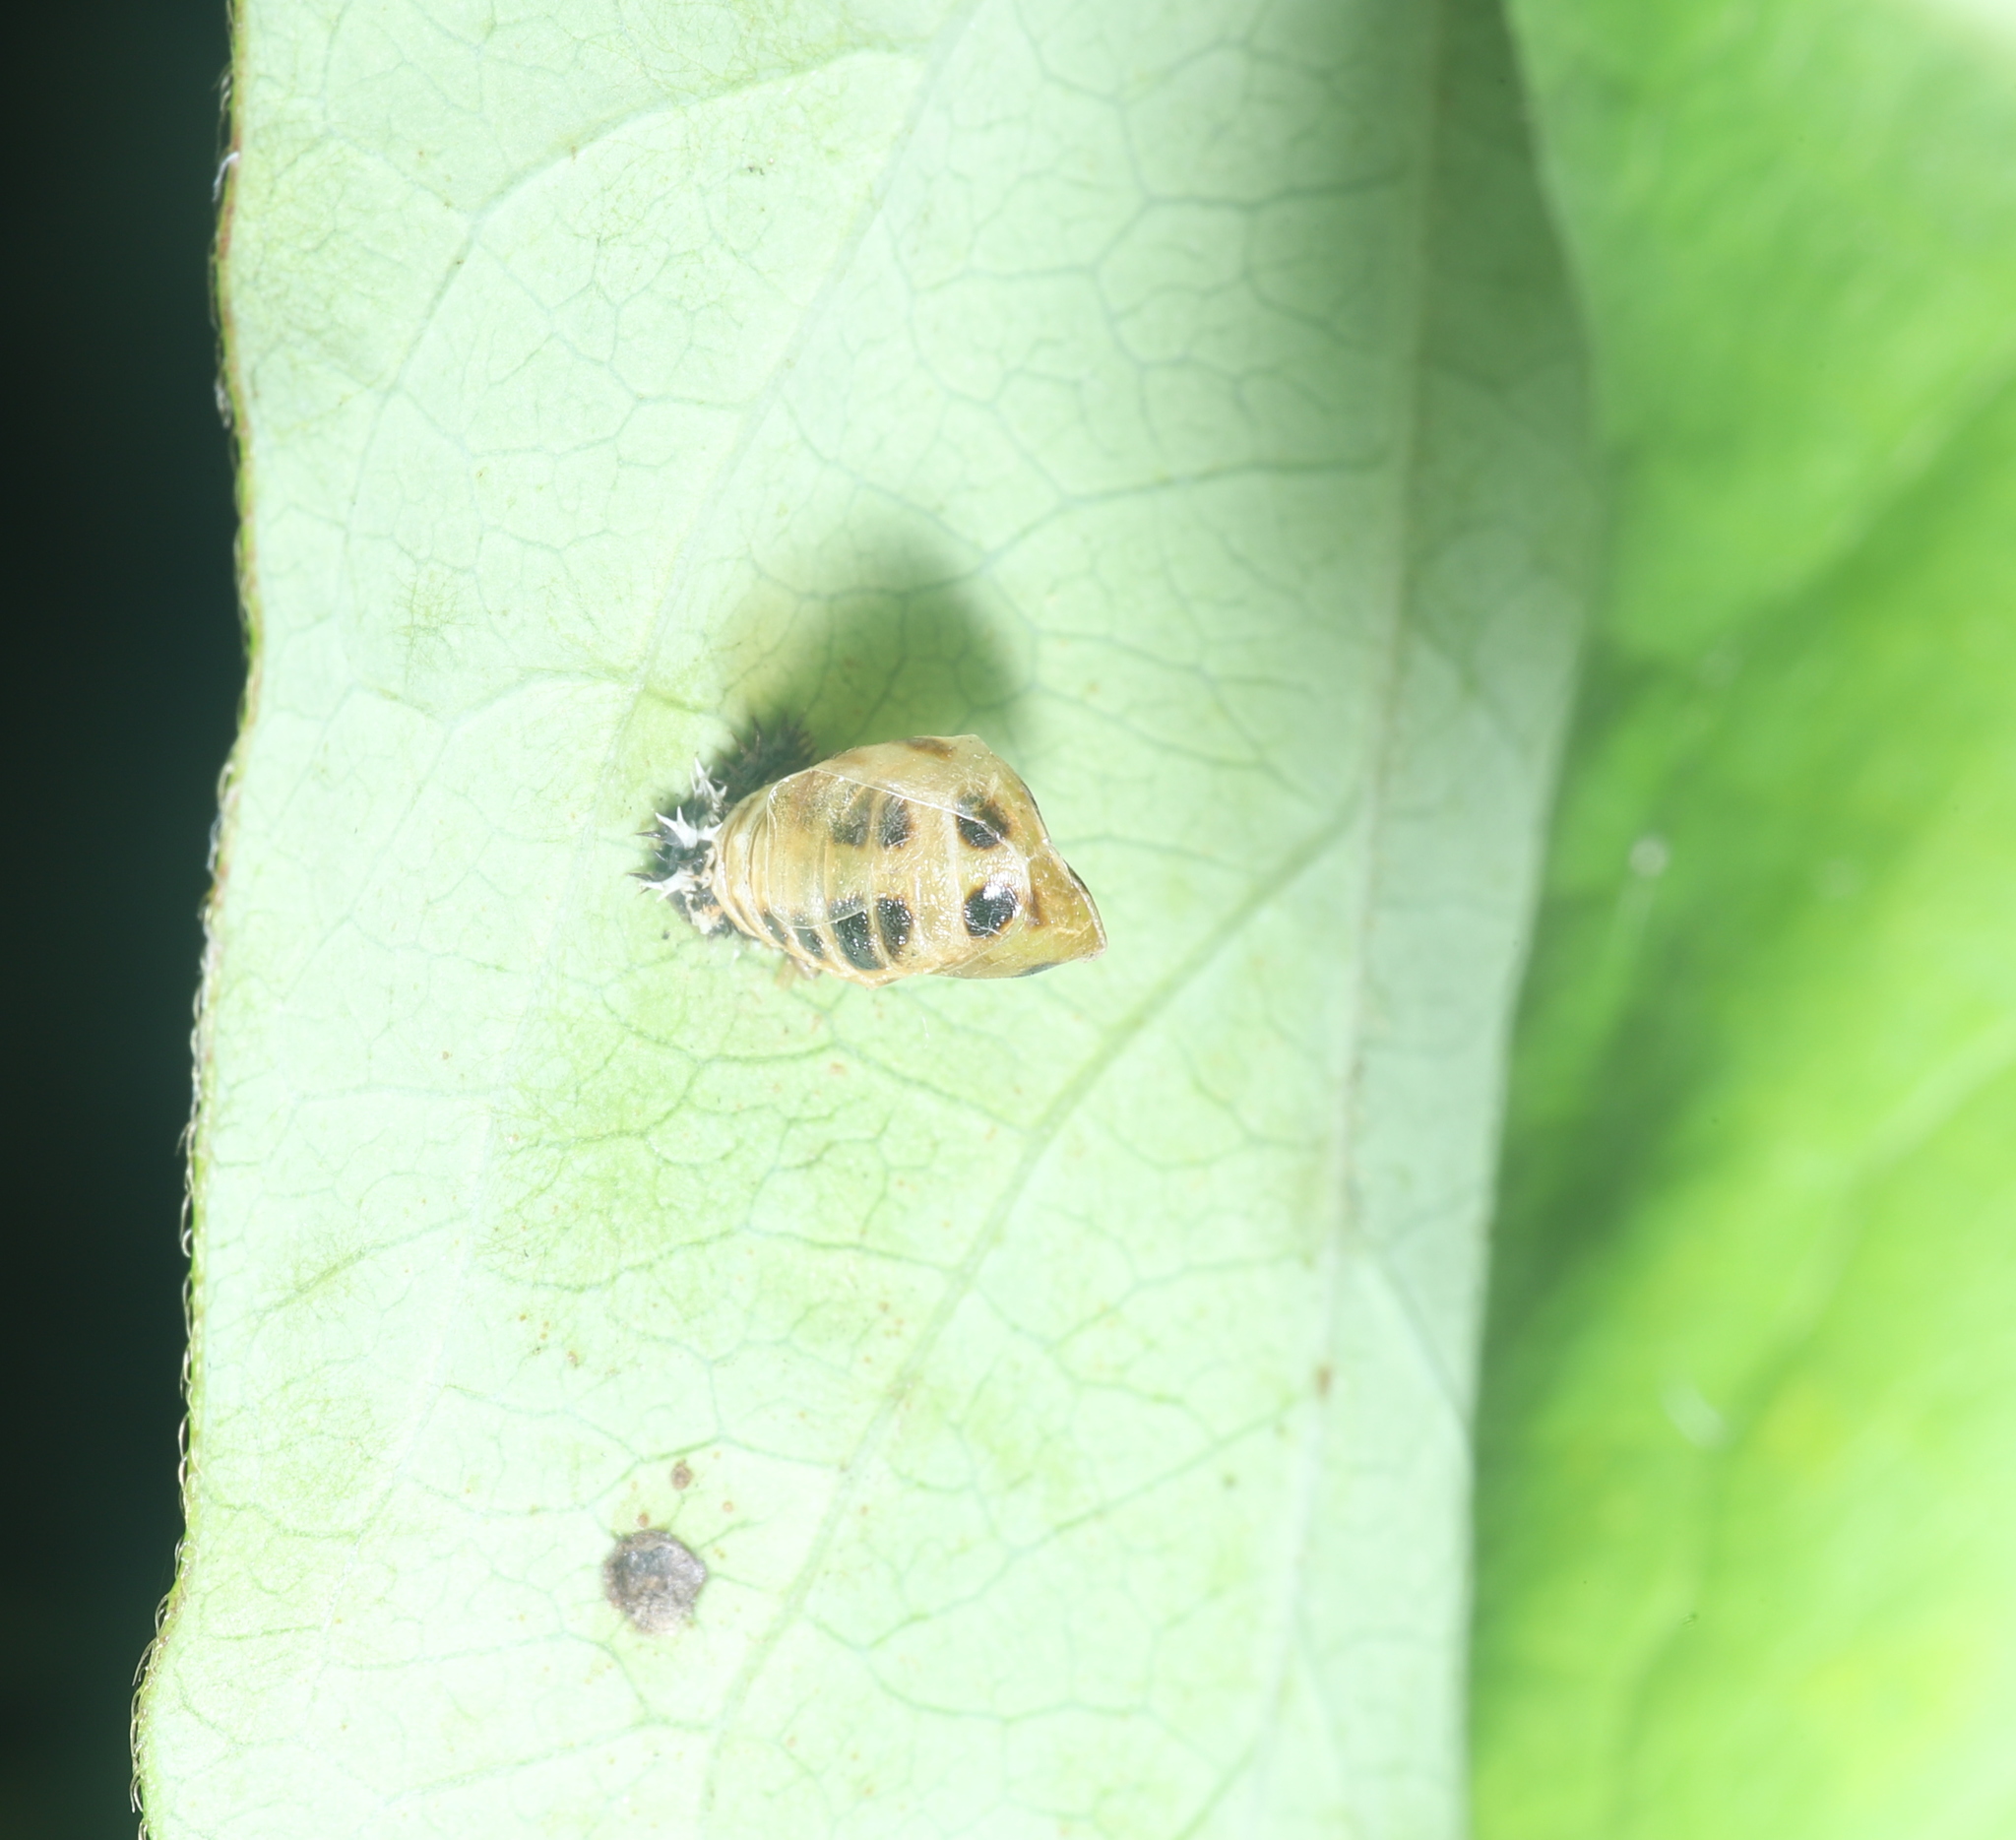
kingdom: Animalia
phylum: Arthropoda
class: Insecta
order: Coleoptera
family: Coccinellidae
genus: Harmonia
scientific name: Harmonia axyridis
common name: Harlequin ladybird
